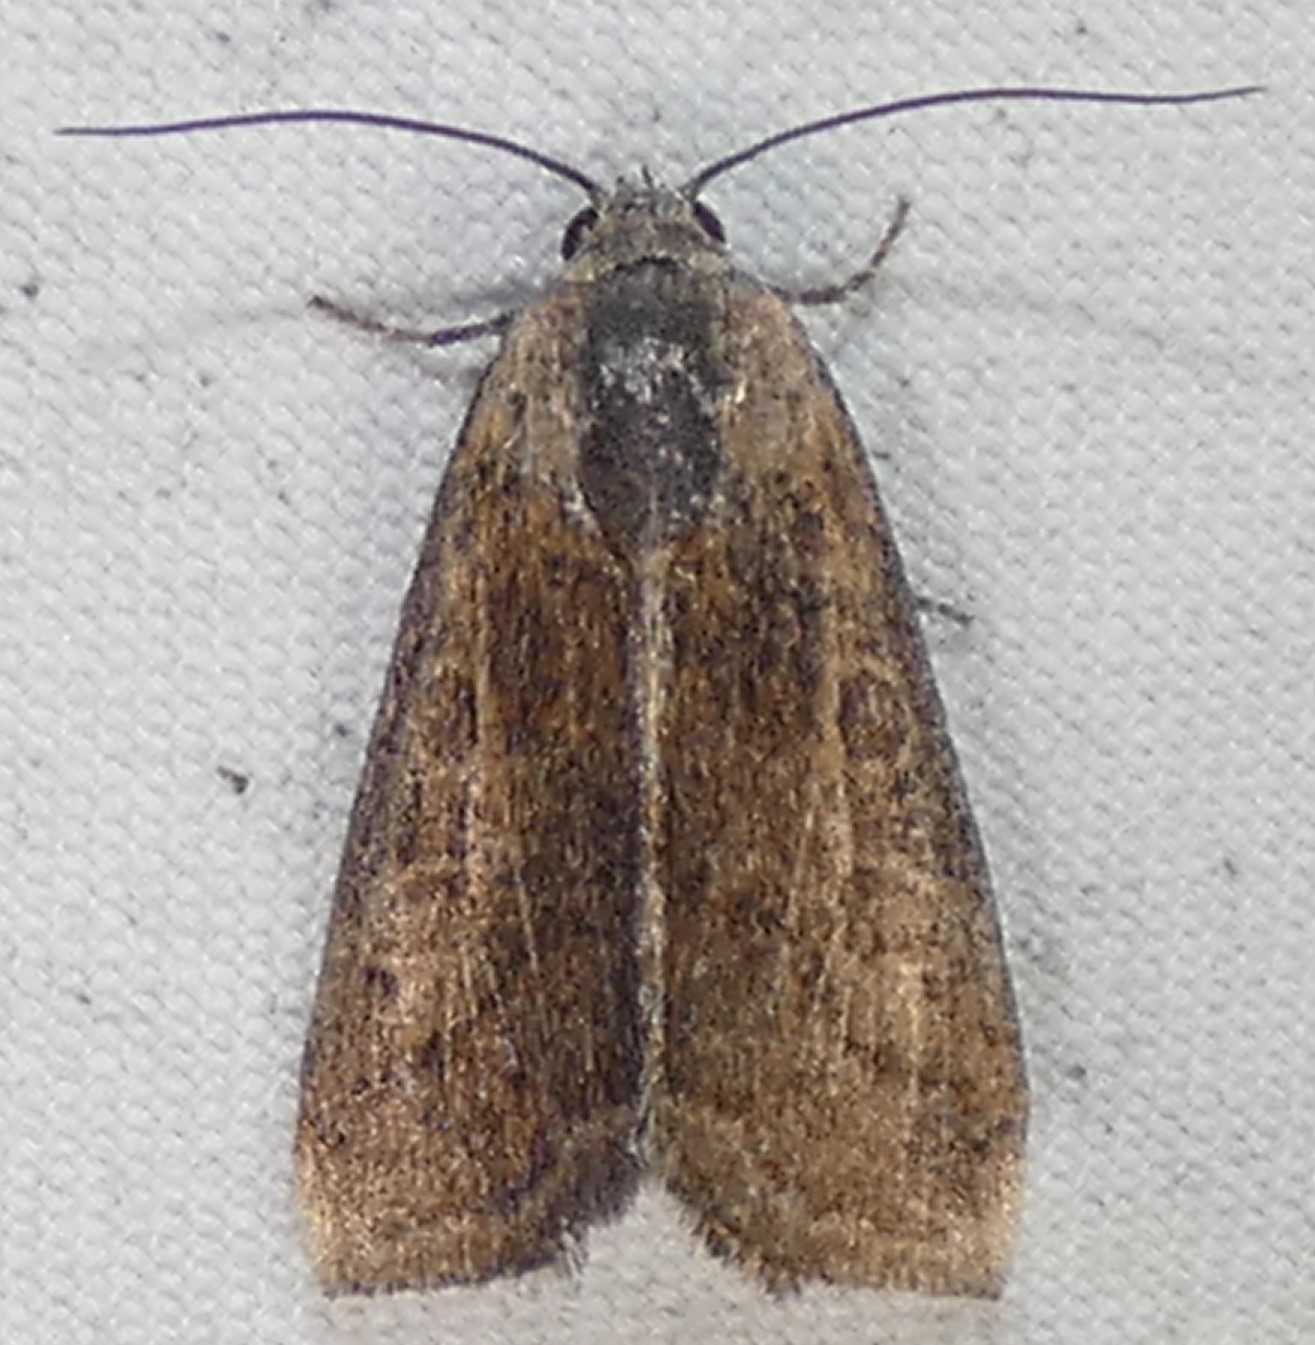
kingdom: Animalia
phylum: Arthropoda
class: Insecta
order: Lepidoptera
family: Noctuidae
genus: Galgula
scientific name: Galgula partita
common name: Wedgeling
